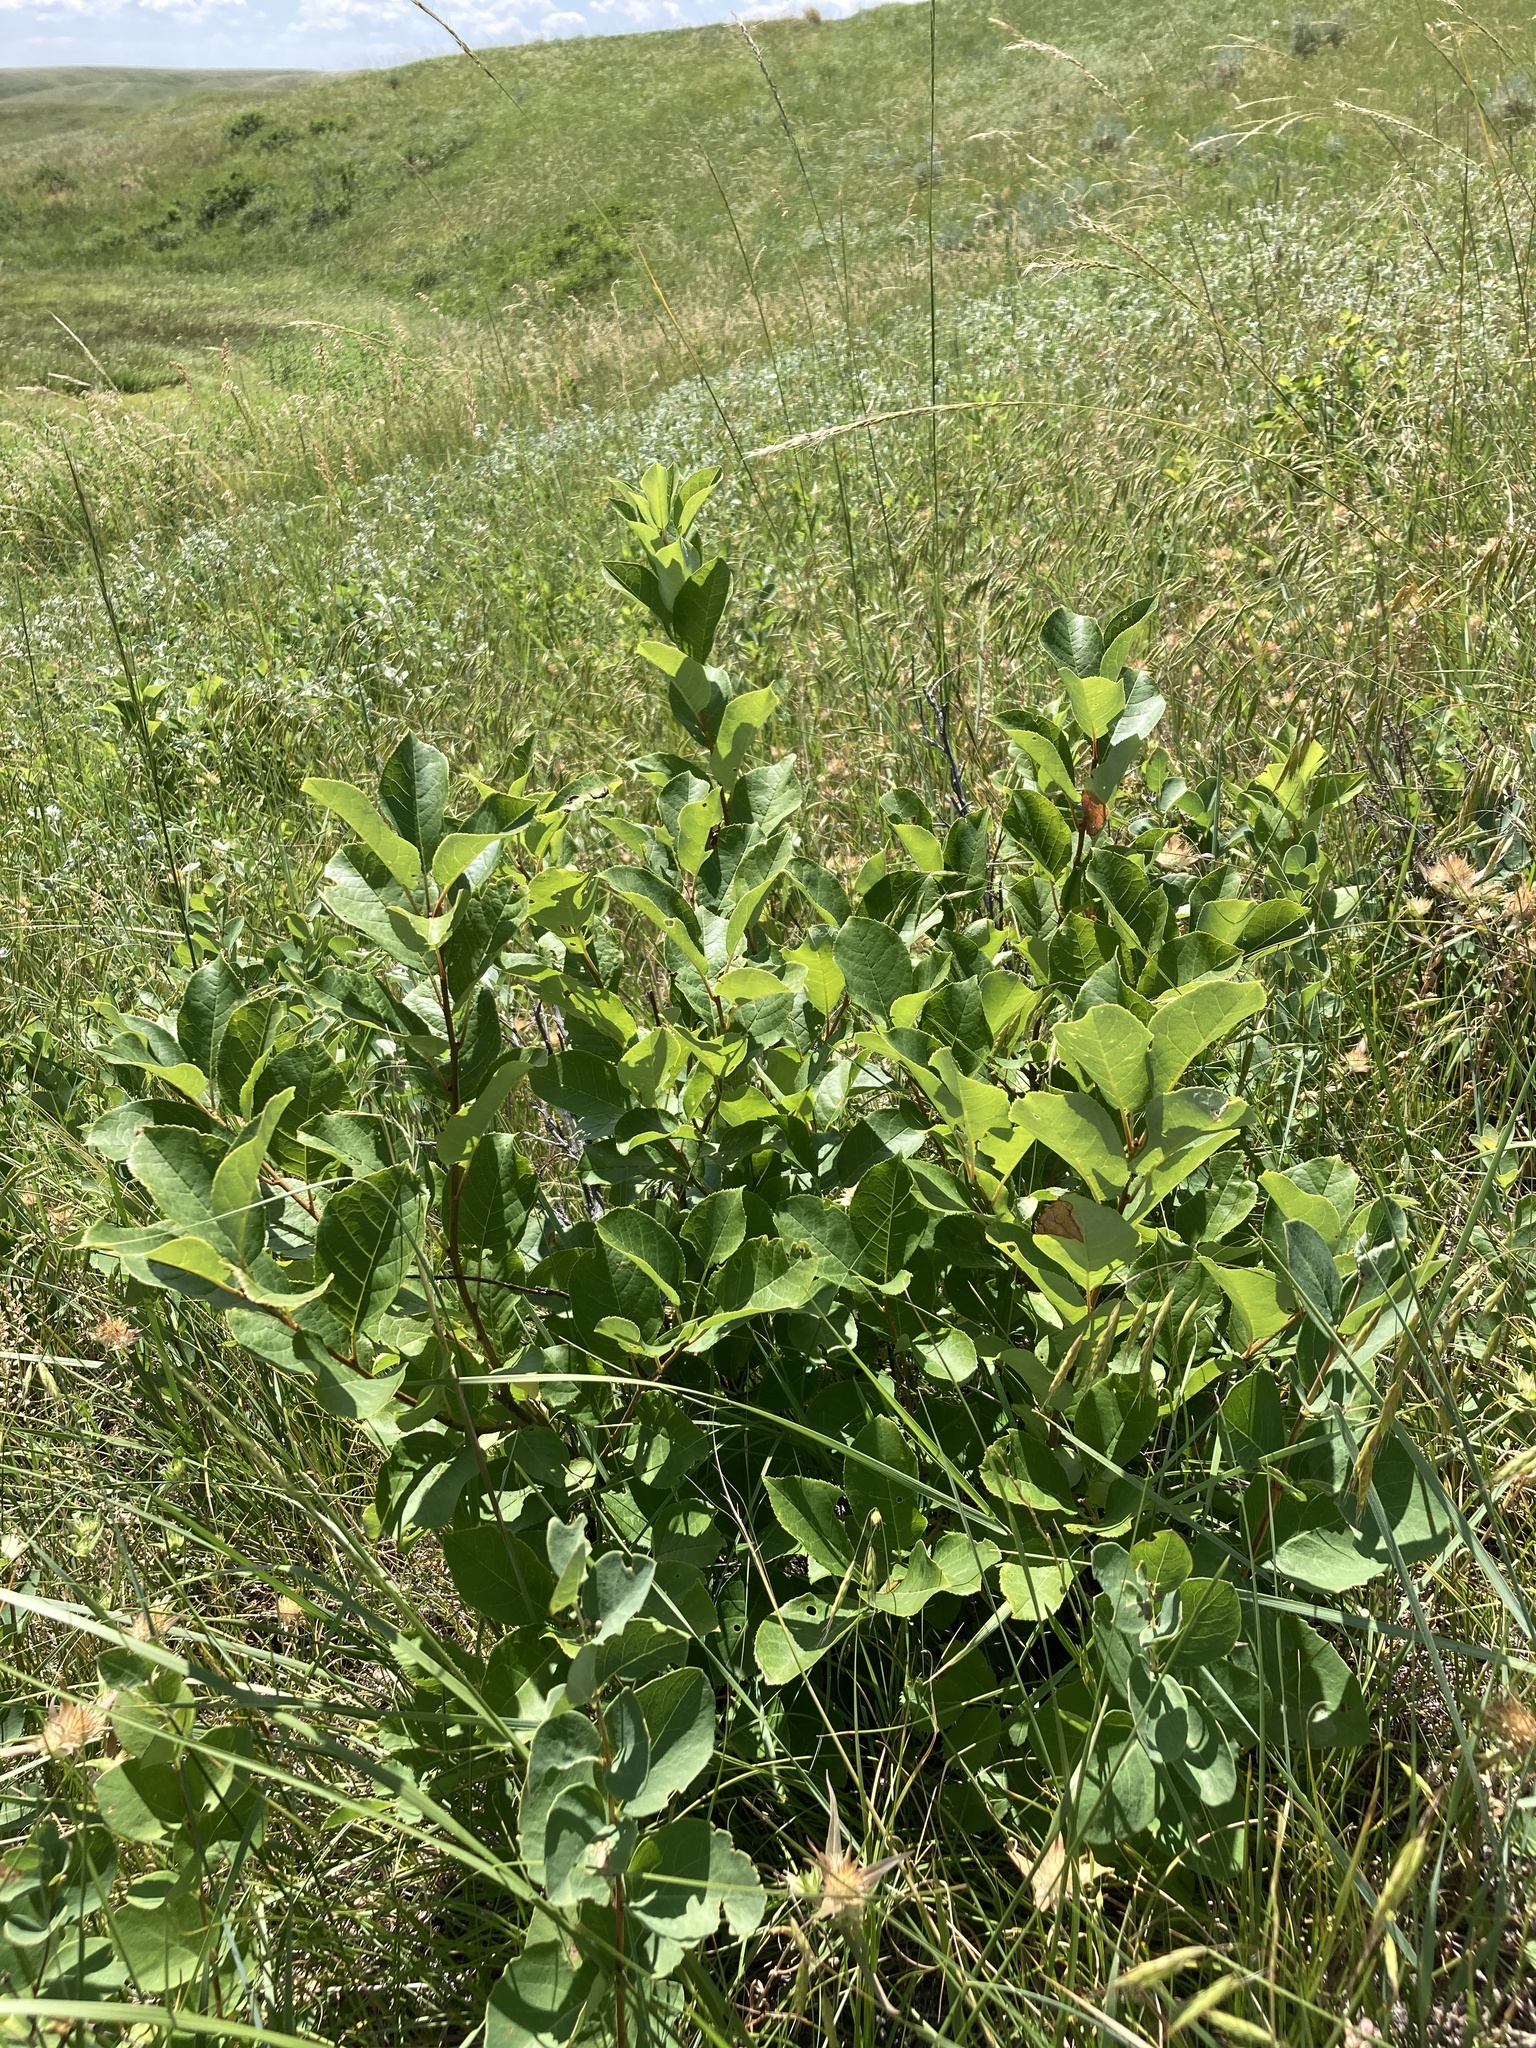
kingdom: Plantae
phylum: Tracheophyta
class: Magnoliopsida
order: Rosales
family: Rosaceae
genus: Prunus
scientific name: Prunus virginiana
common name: Chokecherry
